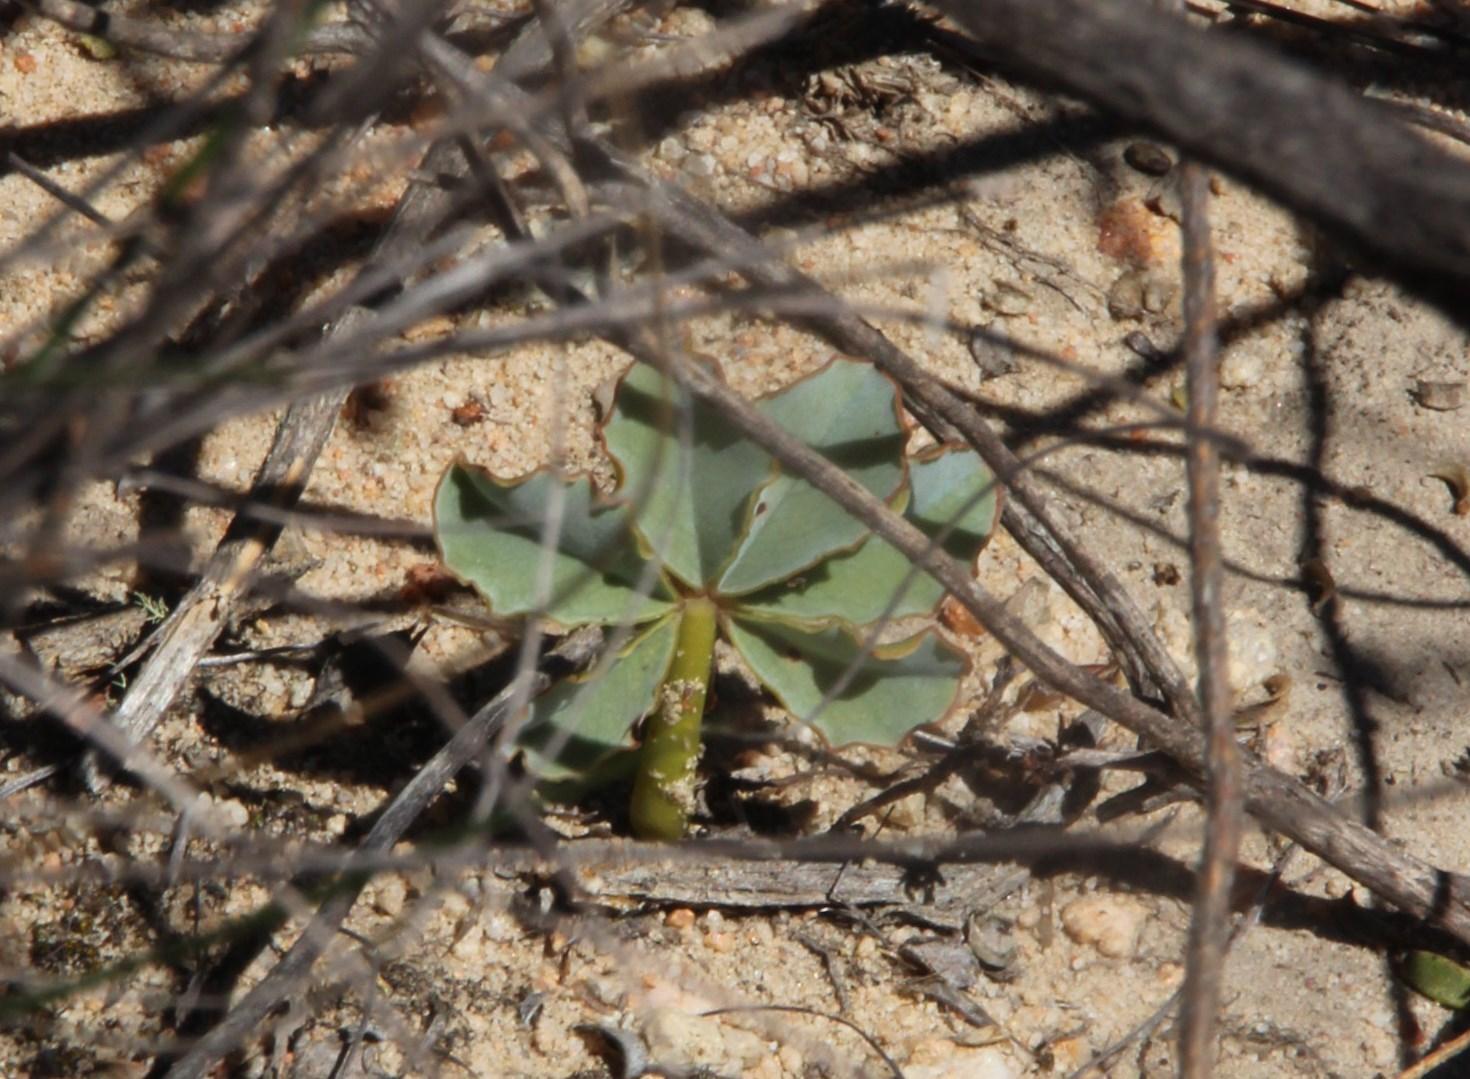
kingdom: Plantae
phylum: Tracheophyta
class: Magnoliopsida
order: Oxalidales
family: Oxalidaceae
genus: Oxalis
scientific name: Oxalis flava
